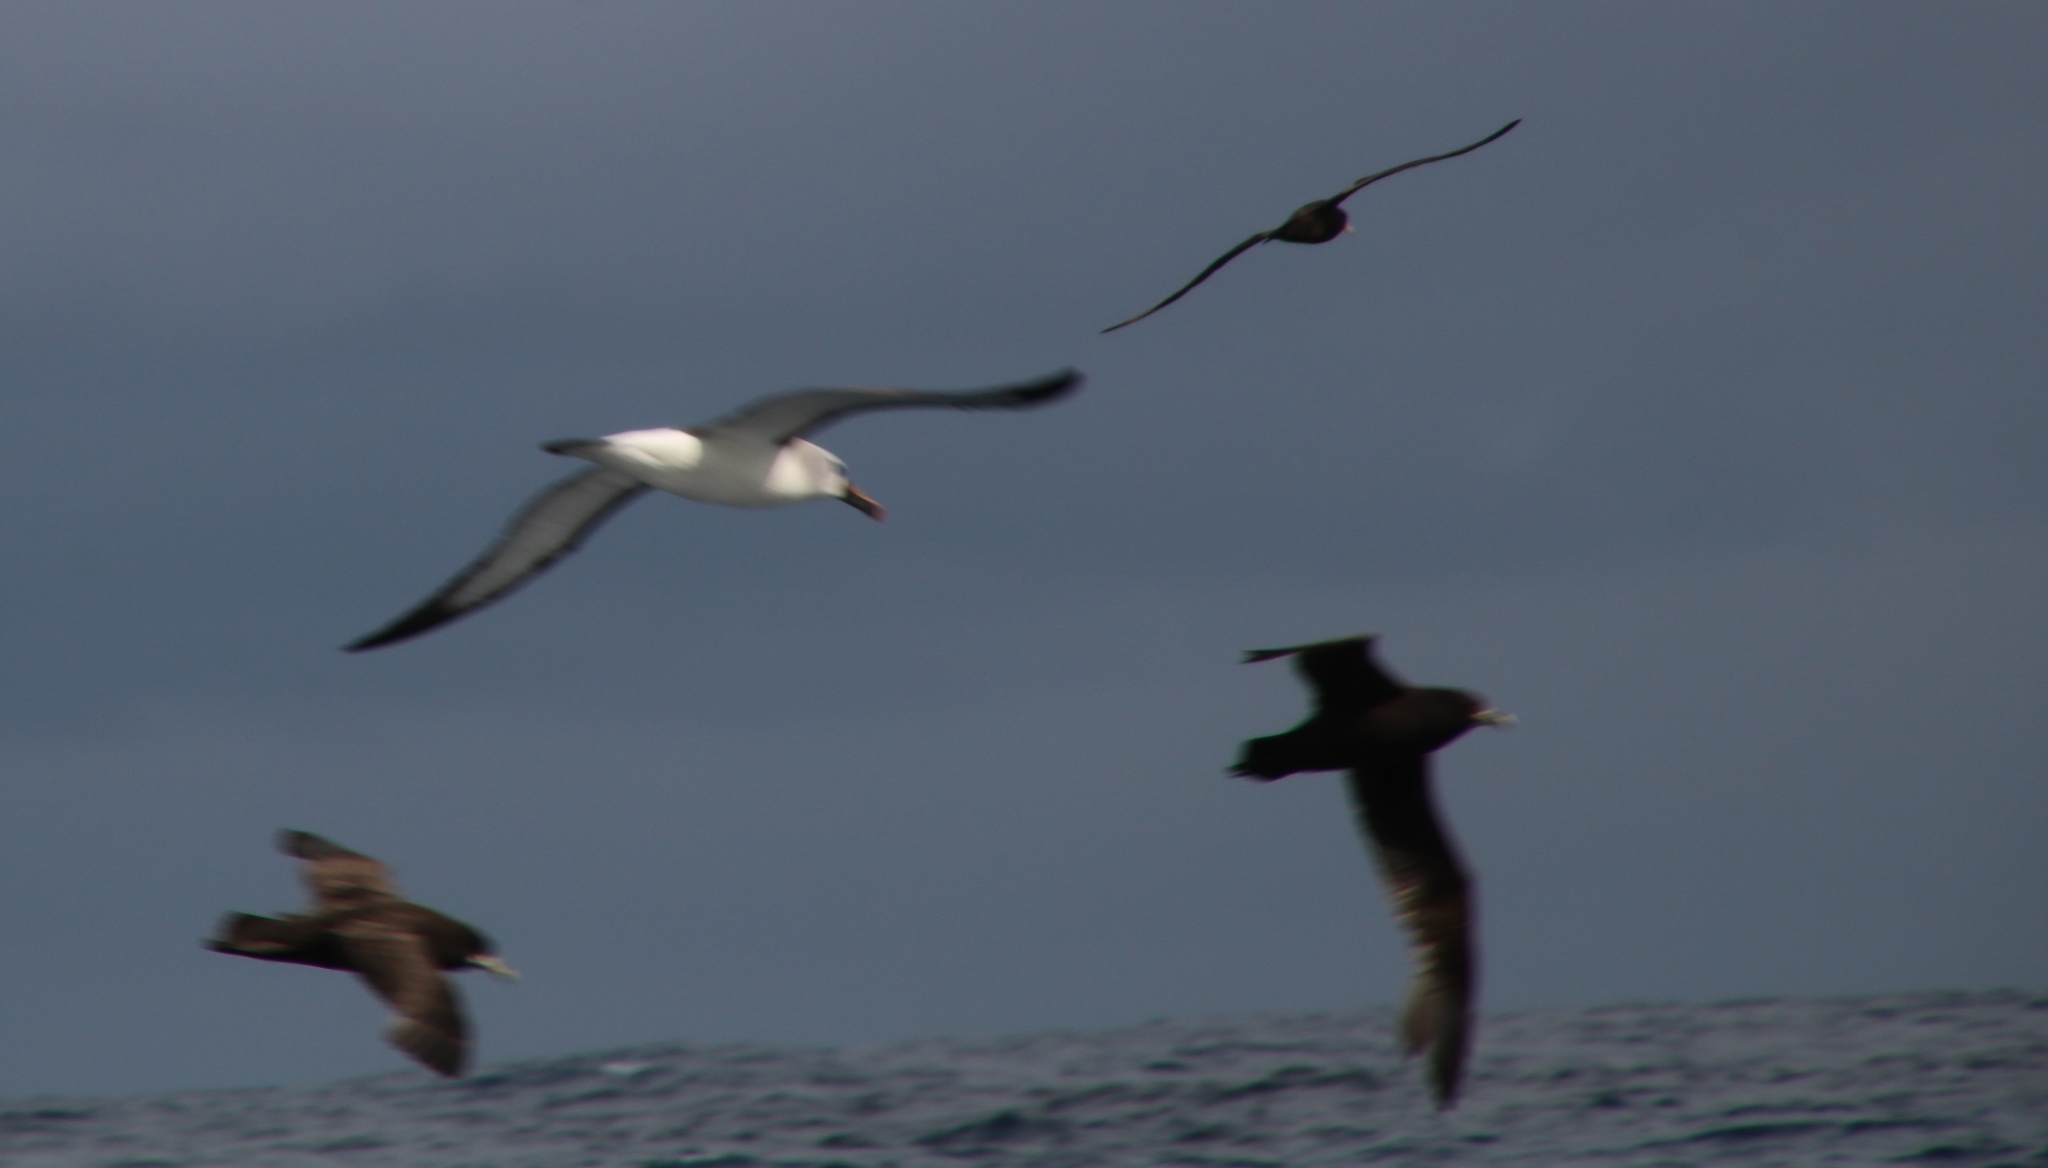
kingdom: Animalia
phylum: Chordata
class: Aves
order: Procellariiformes
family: Diomedeidae
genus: Thalassarche
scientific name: Thalassarche cauta
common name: Shy albatross
